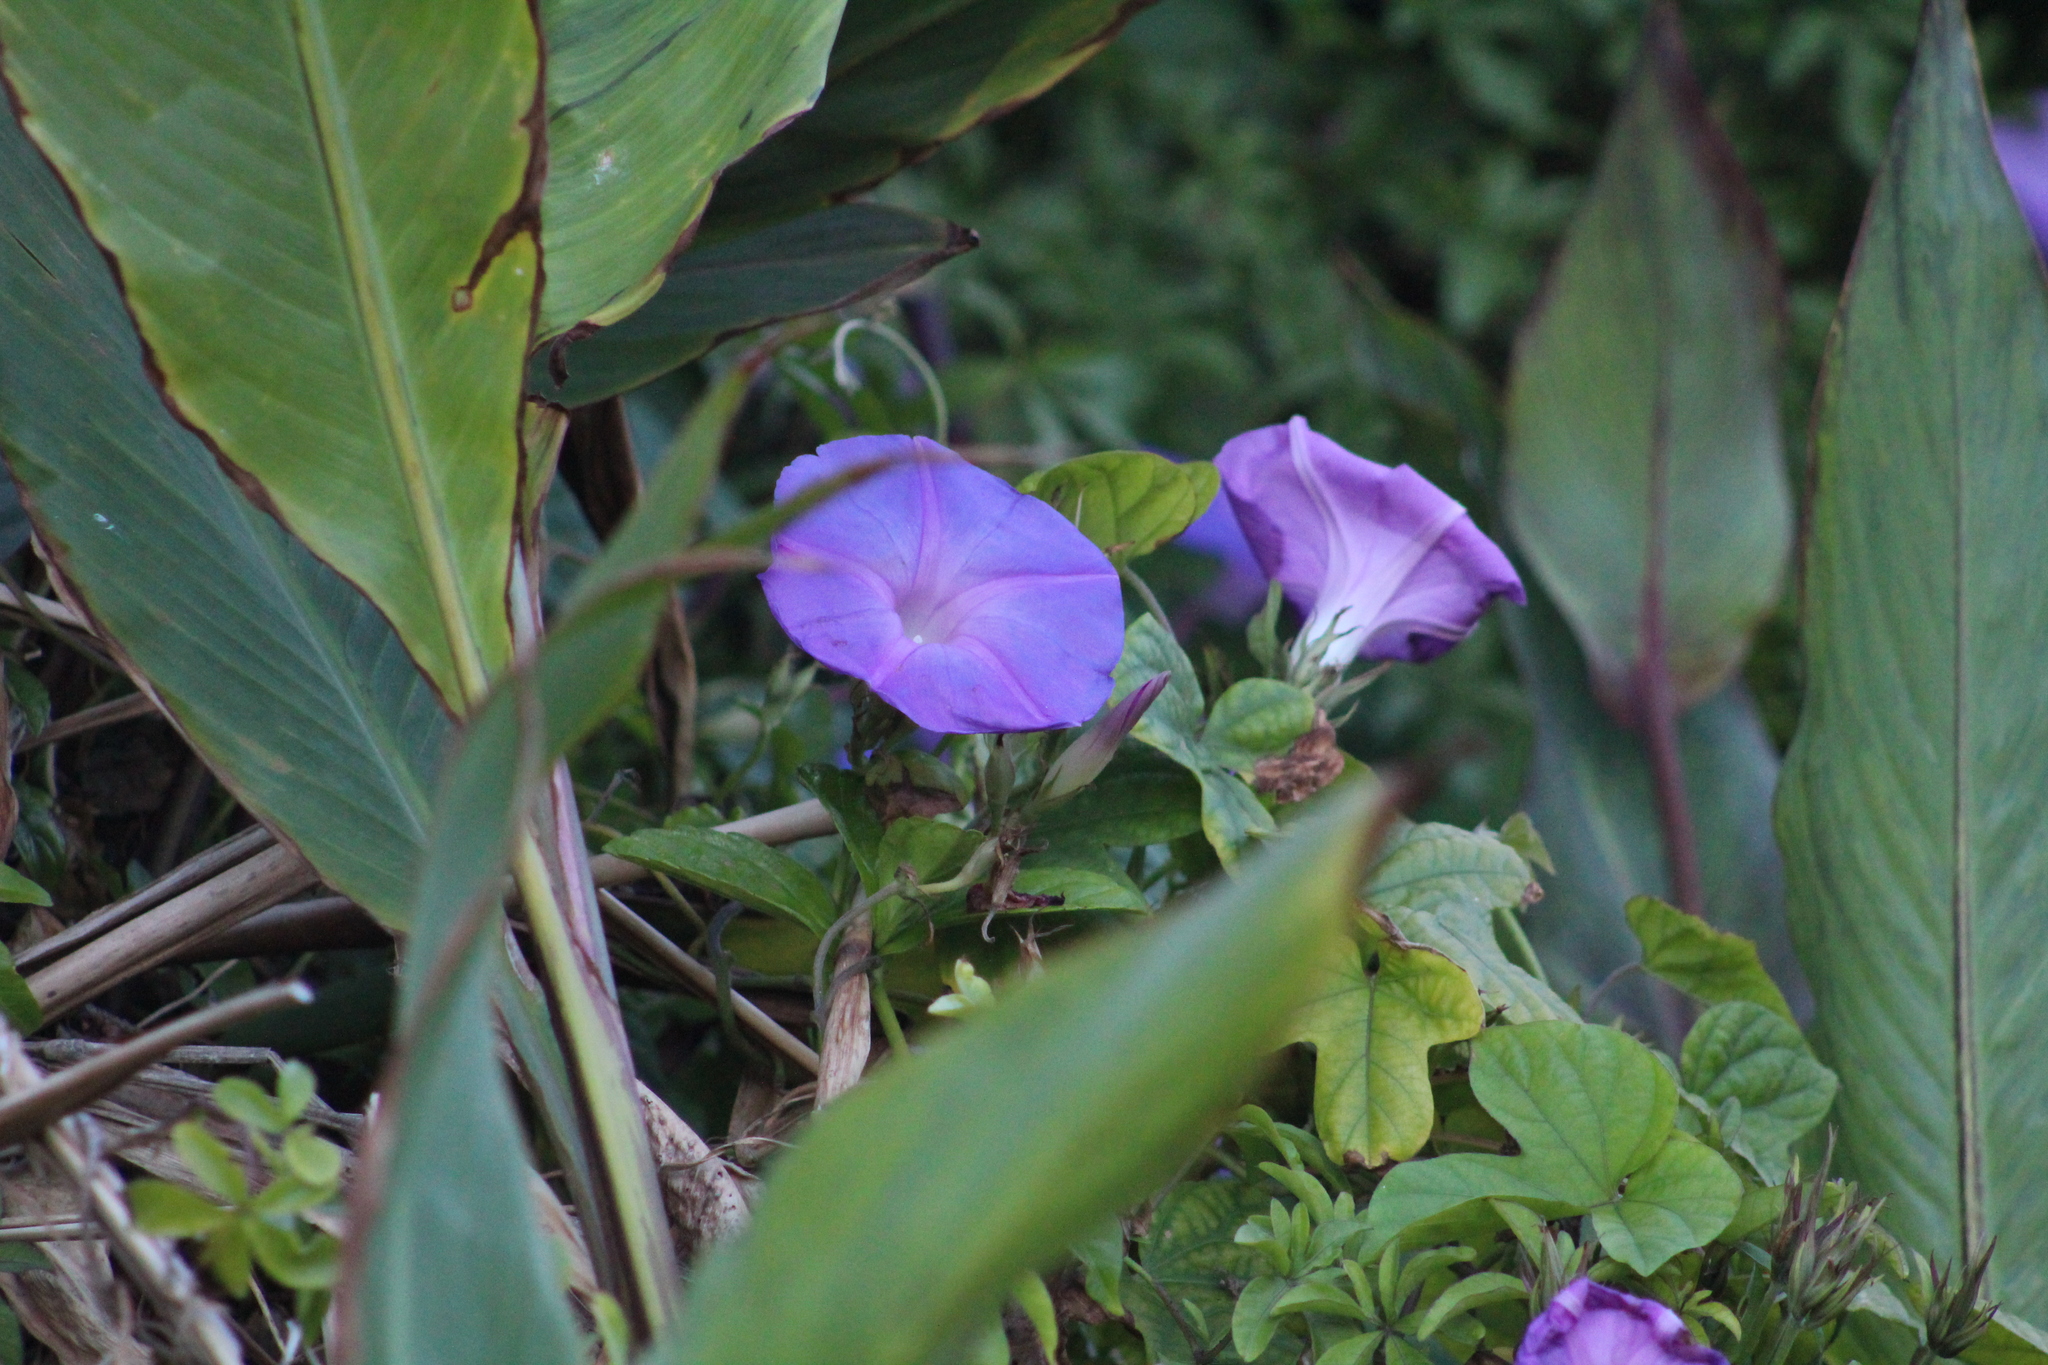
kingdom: Plantae
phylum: Tracheophyta
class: Magnoliopsida
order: Solanales
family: Convolvulaceae
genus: Ipomoea
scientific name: Ipomoea indica
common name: Blue dawnflower
